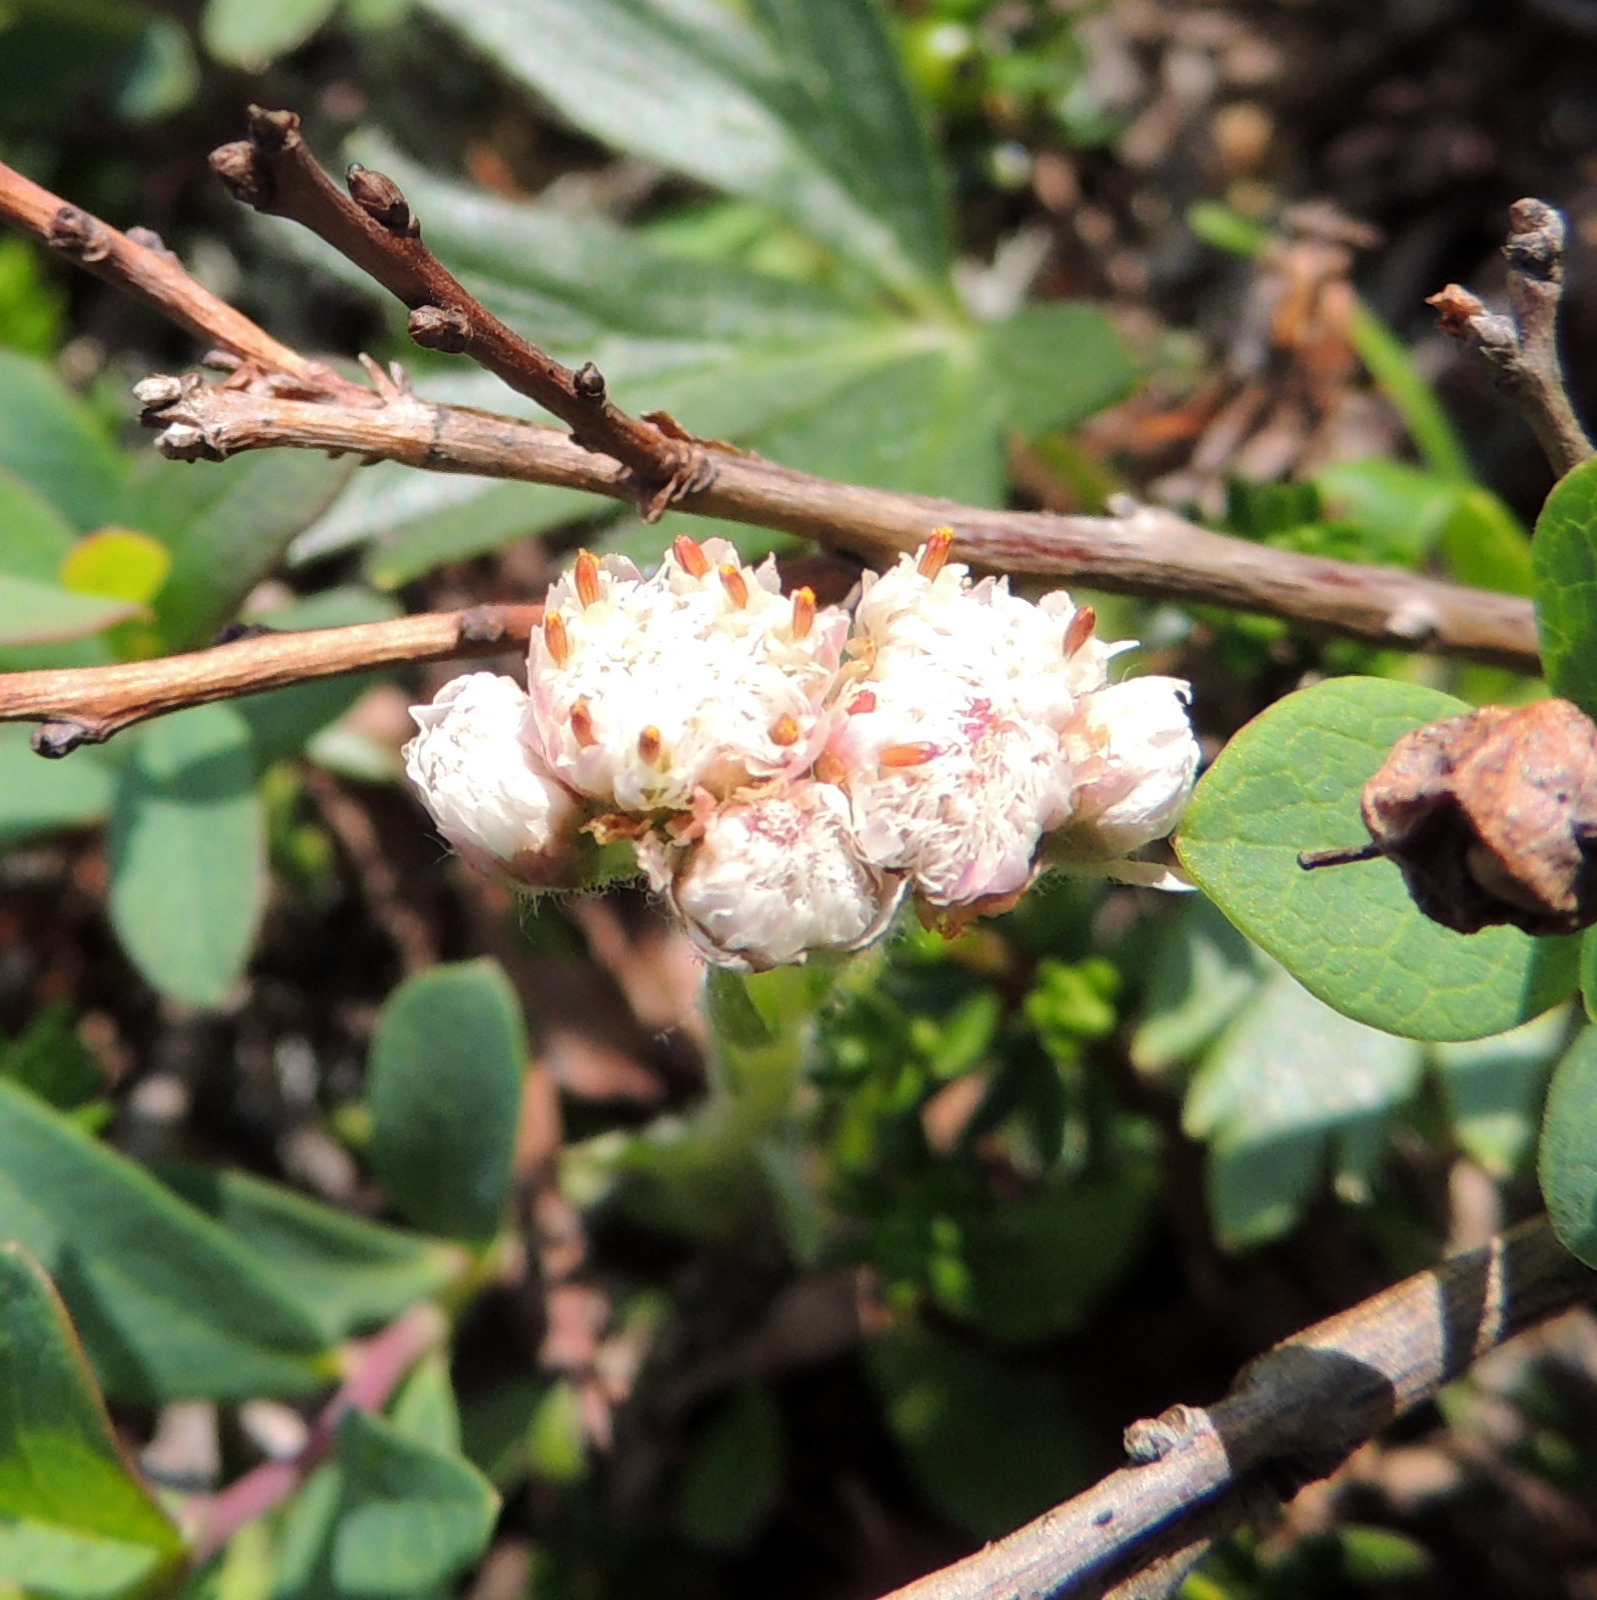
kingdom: Plantae
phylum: Tracheophyta
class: Magnoliopsida
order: Asterales
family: Asteraceae
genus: Antennaria
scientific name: Antennaria dioica
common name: Mountain everlasting
